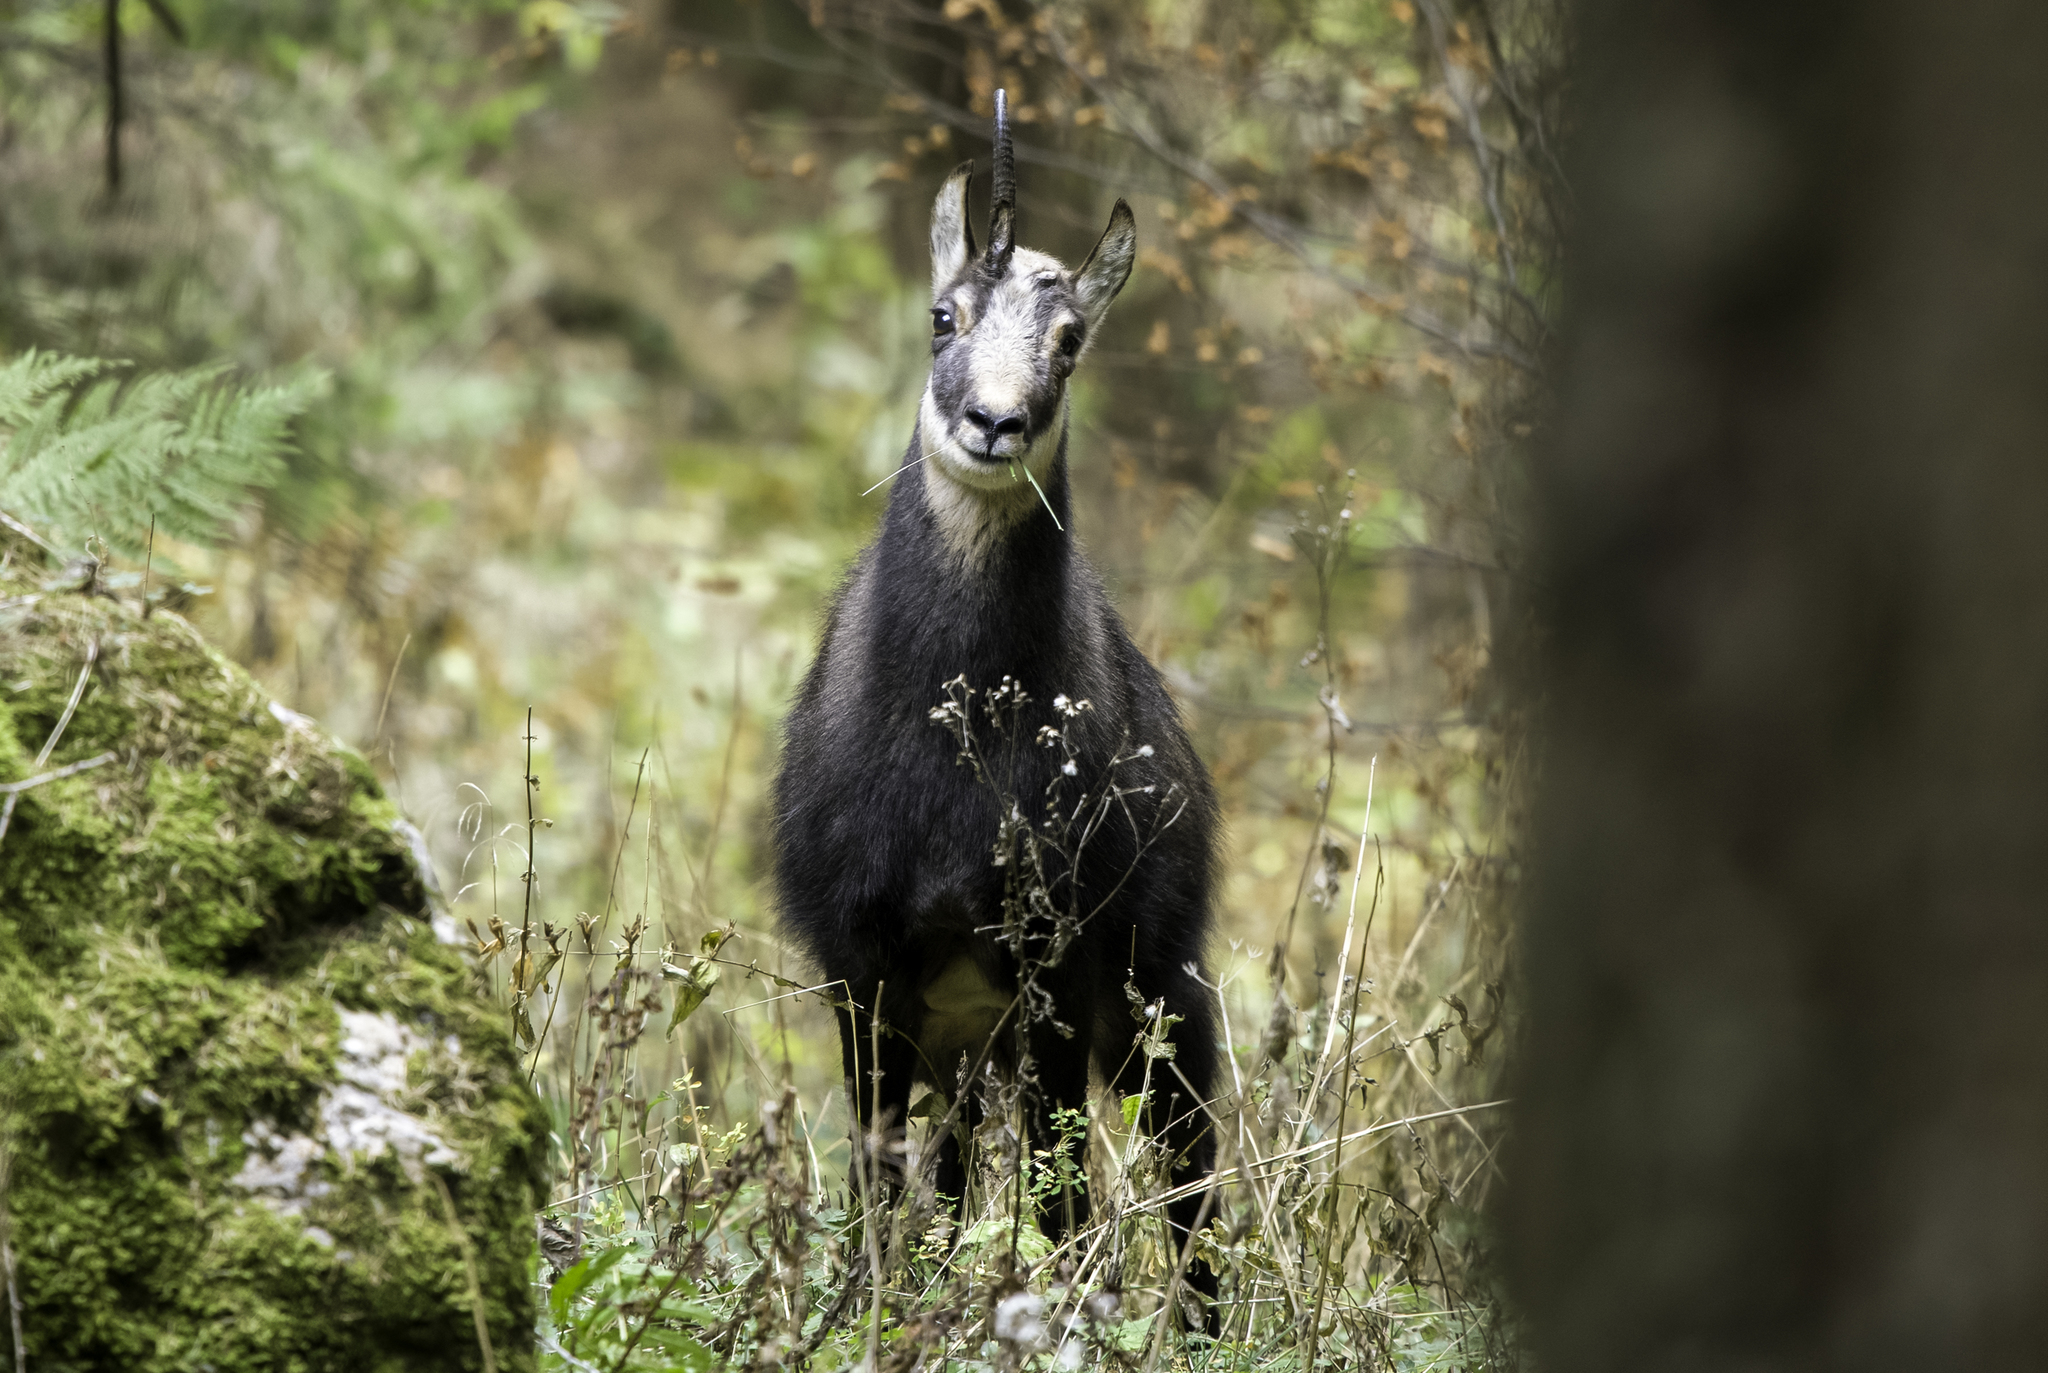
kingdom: Animalia
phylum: Chordata
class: Mammalia
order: Artiodactyla
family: Bovidae
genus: Rupicapra
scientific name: Rupicapra rupicapra
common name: Chamois
